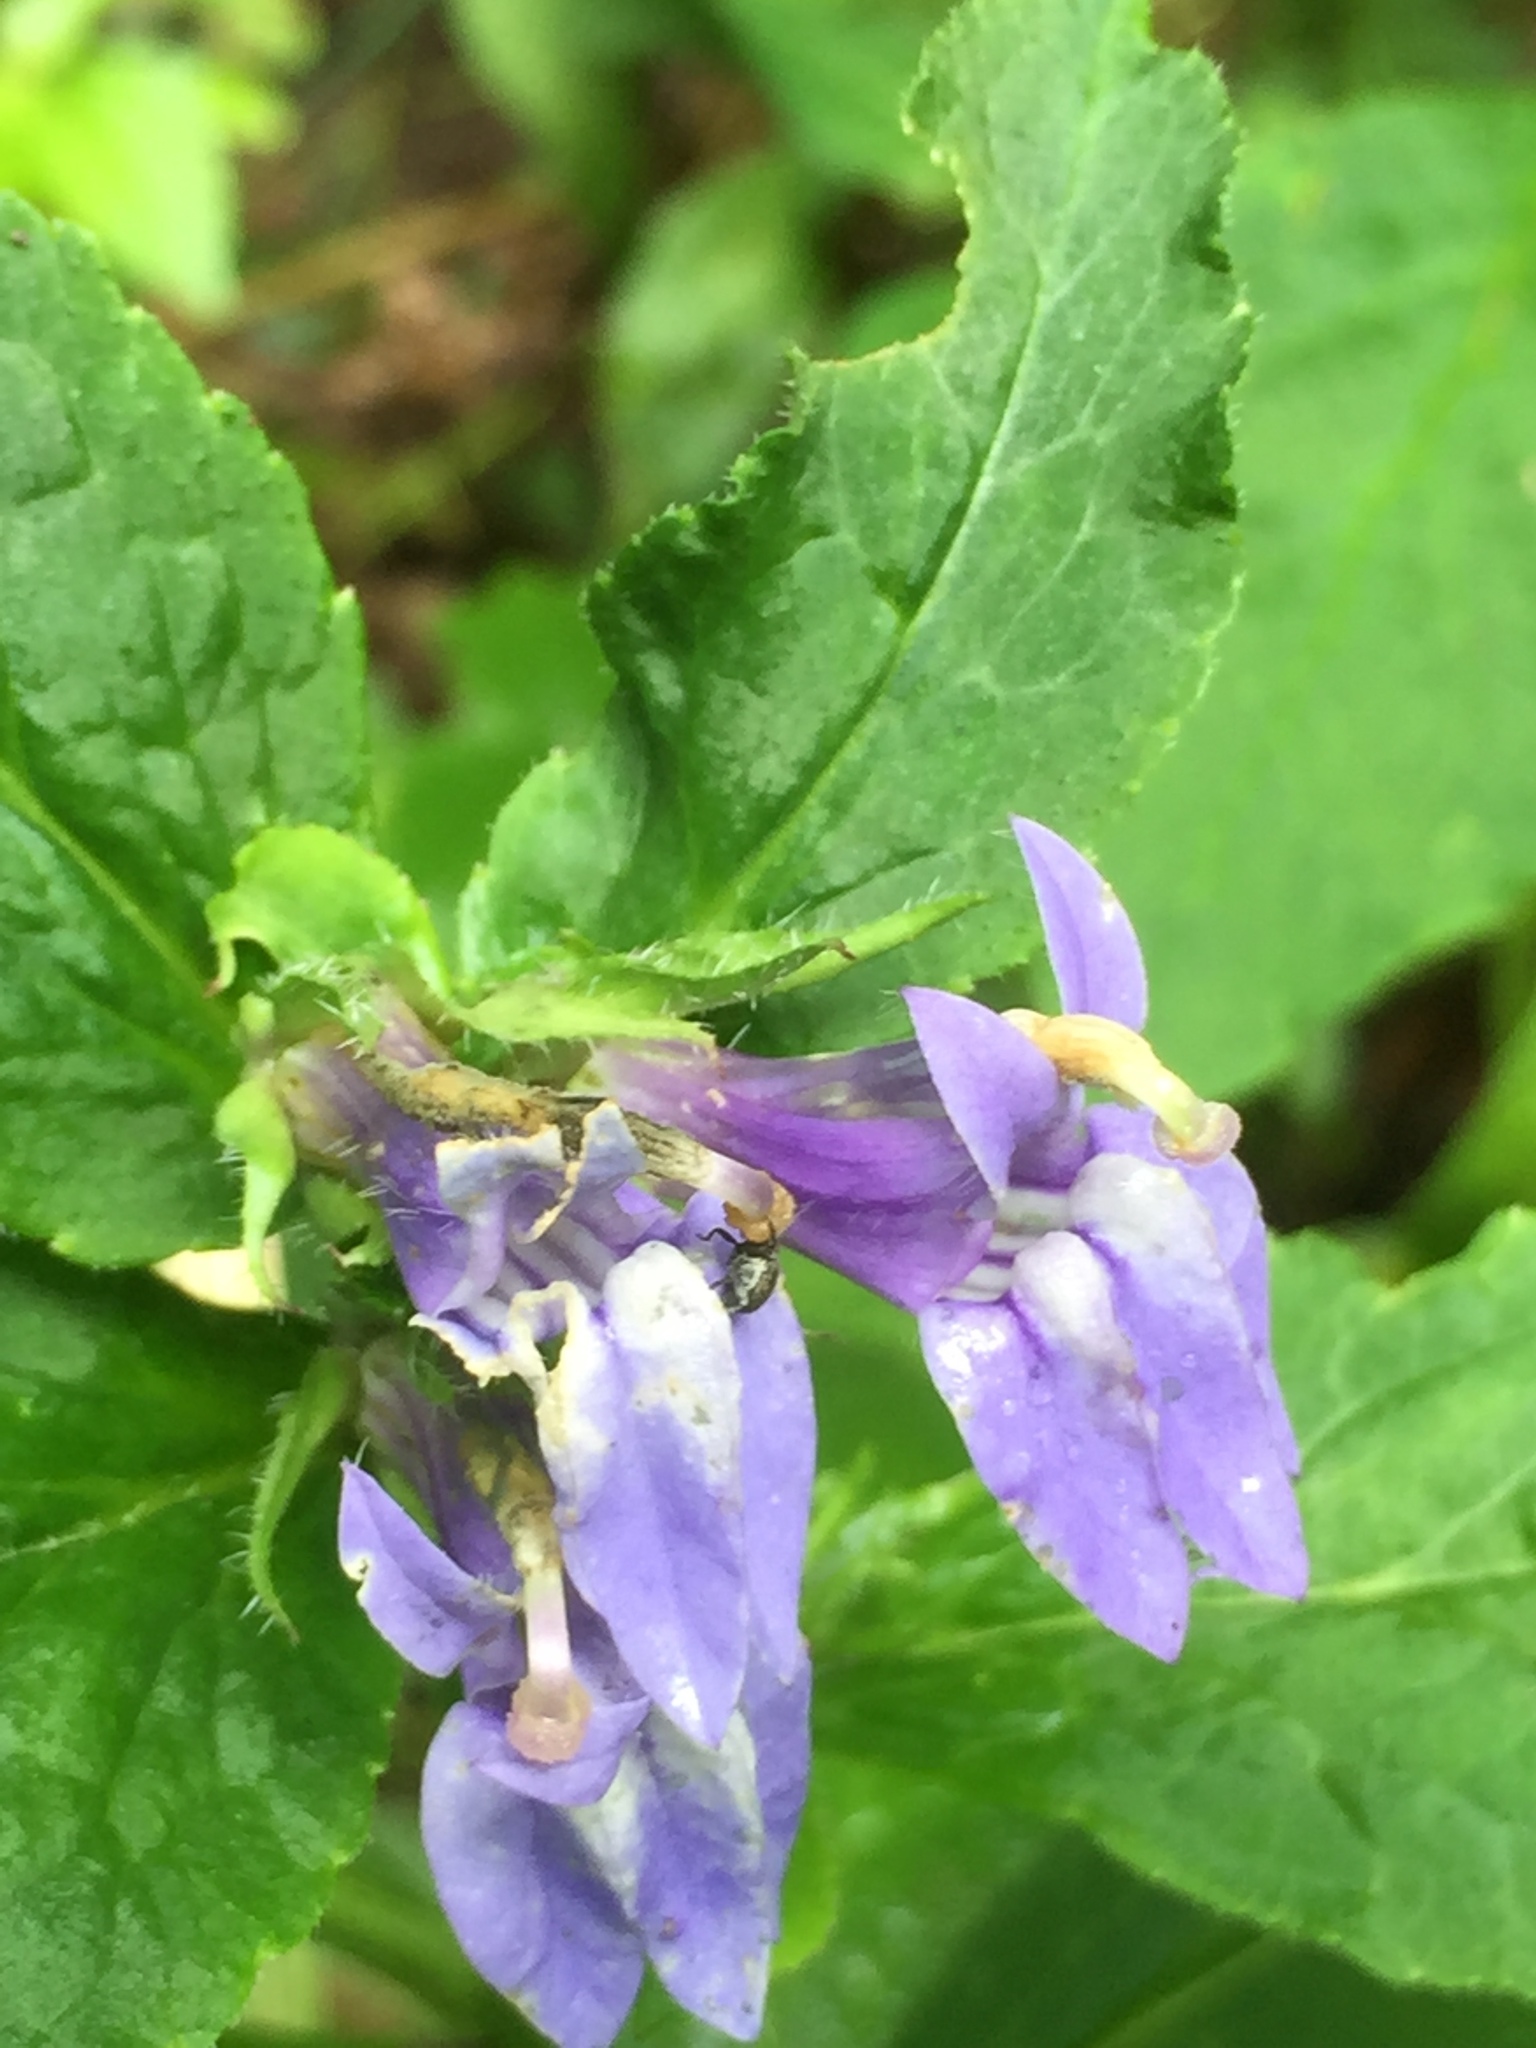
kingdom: Plantae
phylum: Tracheophyta
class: Magnoliopsida
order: Asterales
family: Campanulaceae
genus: Lobelia
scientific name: Lobelia siphilitica
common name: Great lobelia
